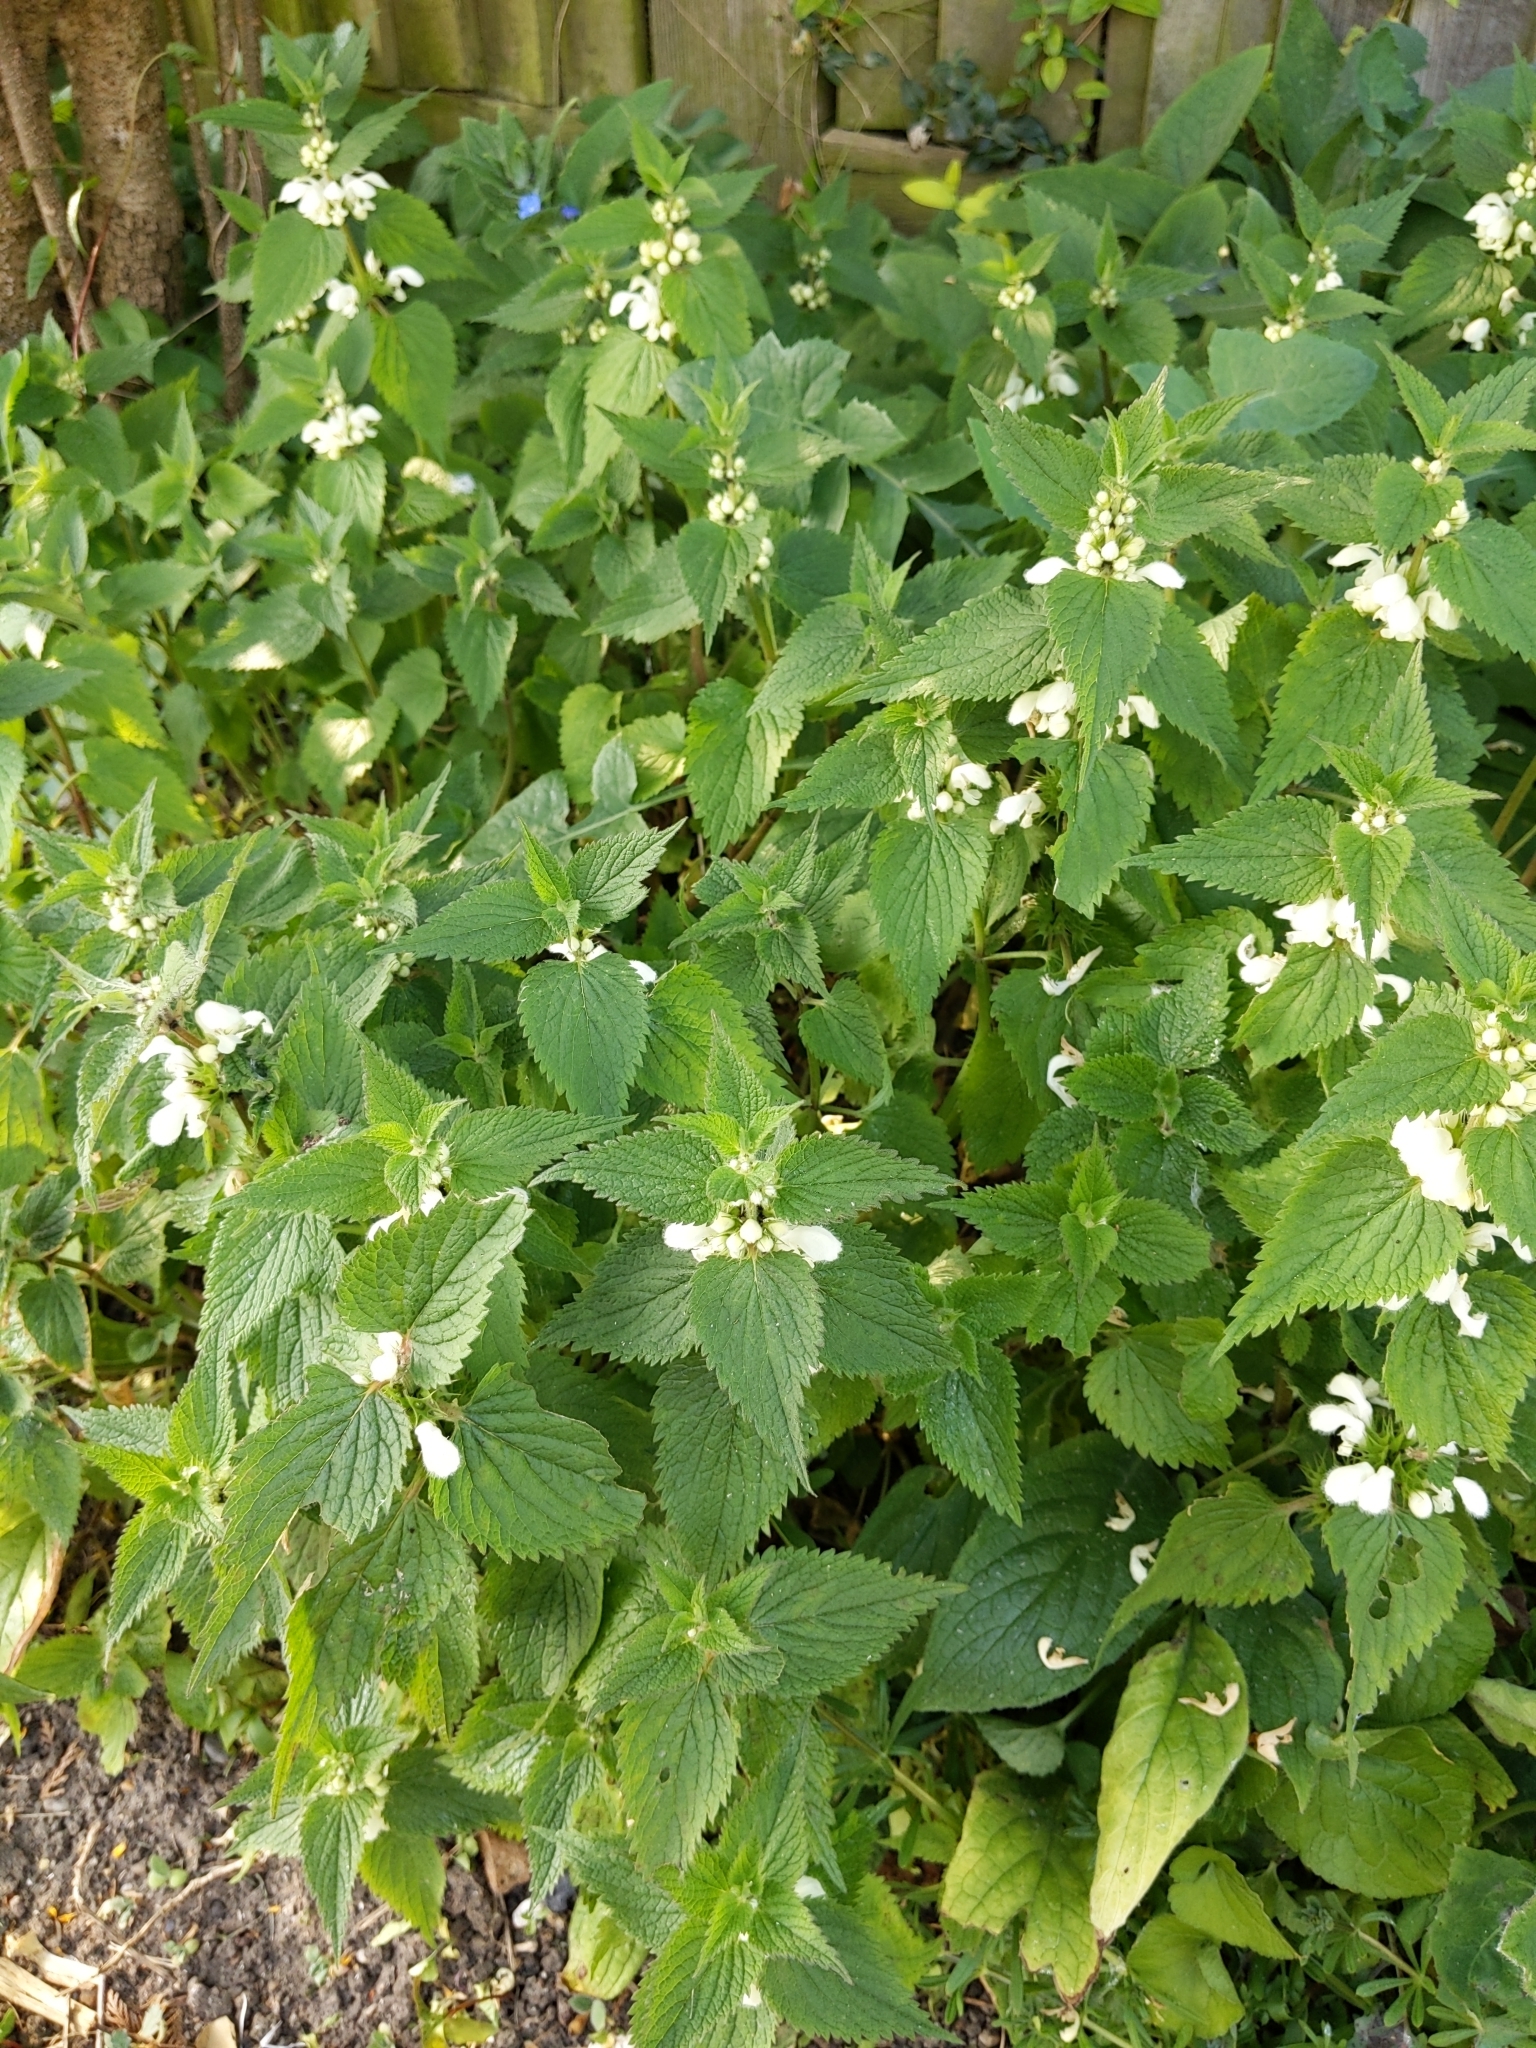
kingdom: Plantae
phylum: Tracheophyta
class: Magnoliopsida
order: Lamiales
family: Lamiaceae
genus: Lamium
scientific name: Lamium album
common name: White dead-nettle
